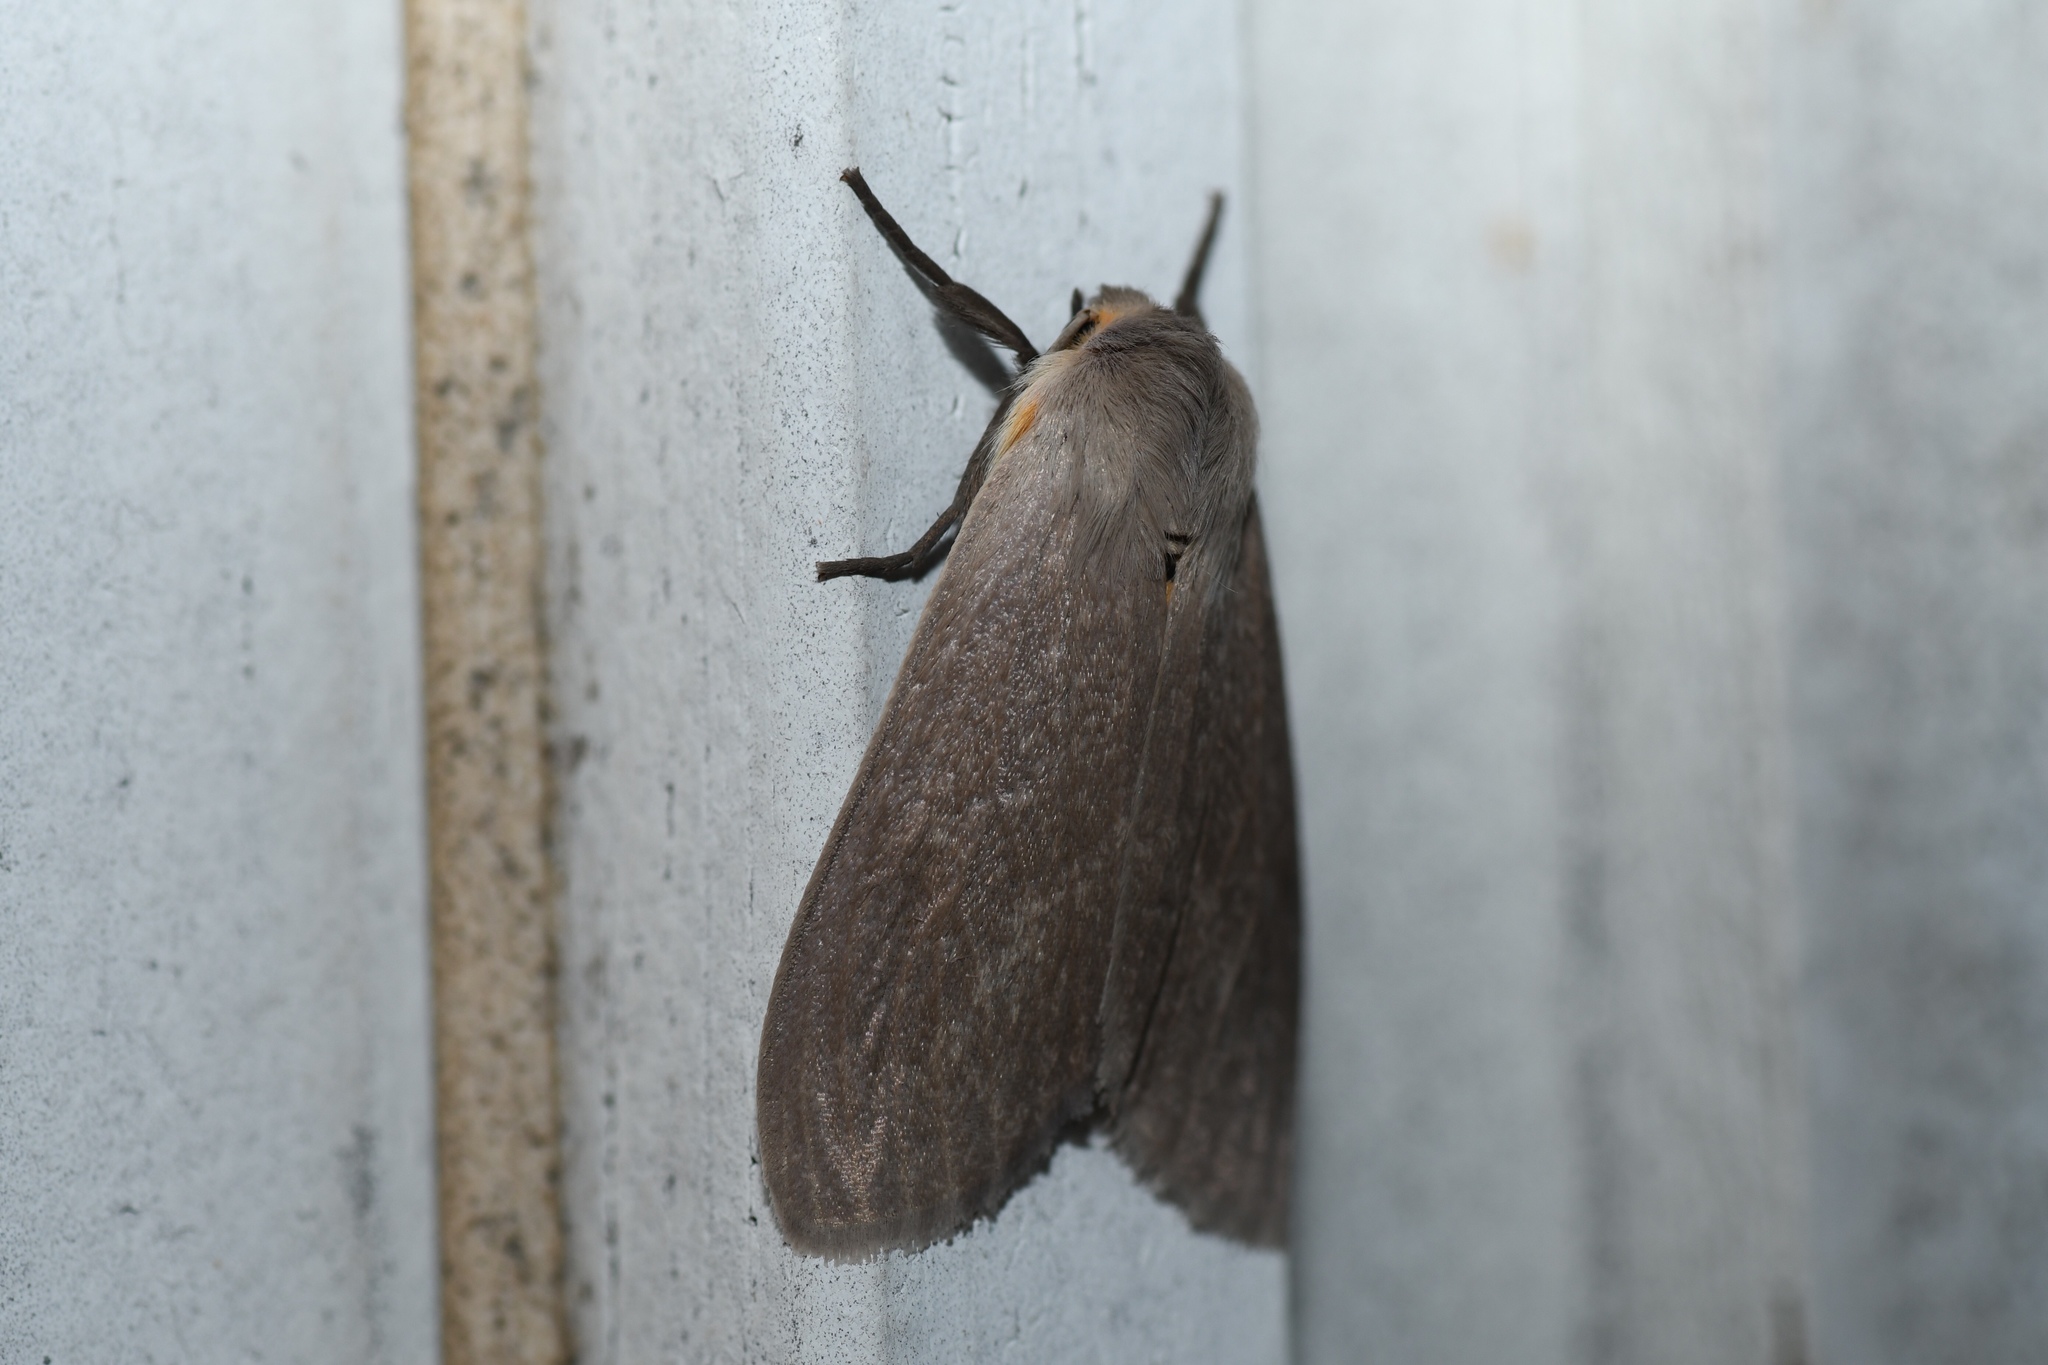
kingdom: Animalia
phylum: Arthropoda
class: Insecta
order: Lepidoptera
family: Erebidae
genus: Euchaetes
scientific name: Euchaetes egle
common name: Milkweed tussock moth
